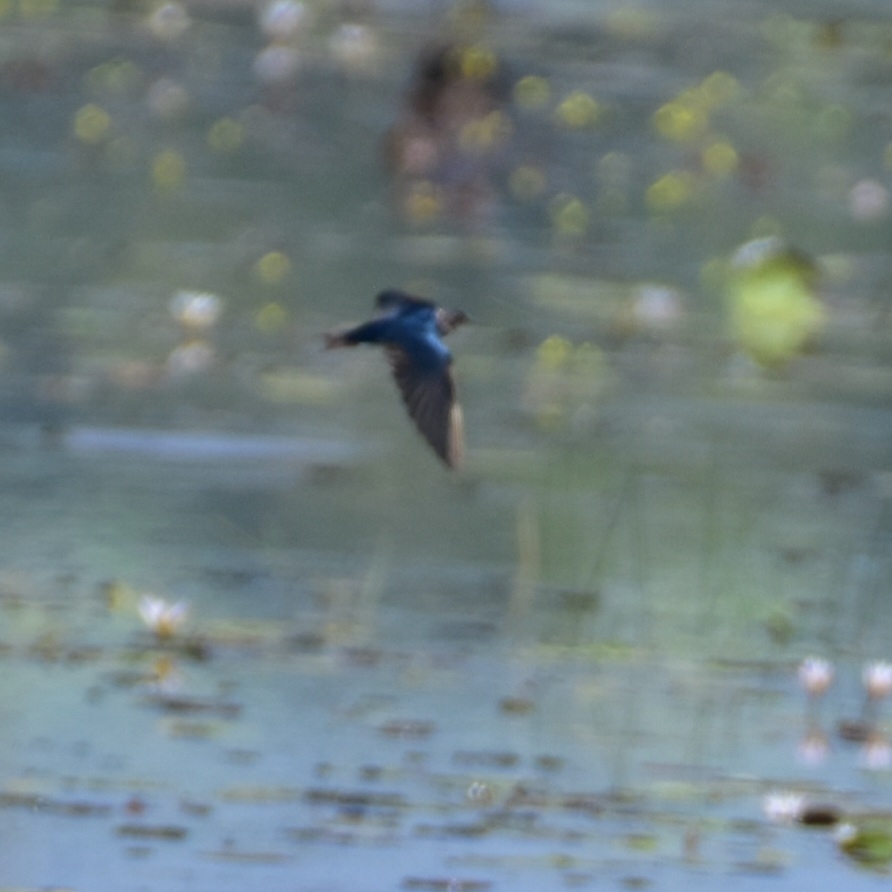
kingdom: Animalia
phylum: Chordata
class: Aves
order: Passeriformes
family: Hirundinidae
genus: Hirundo
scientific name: Hirundo rustica
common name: Barn swallow
